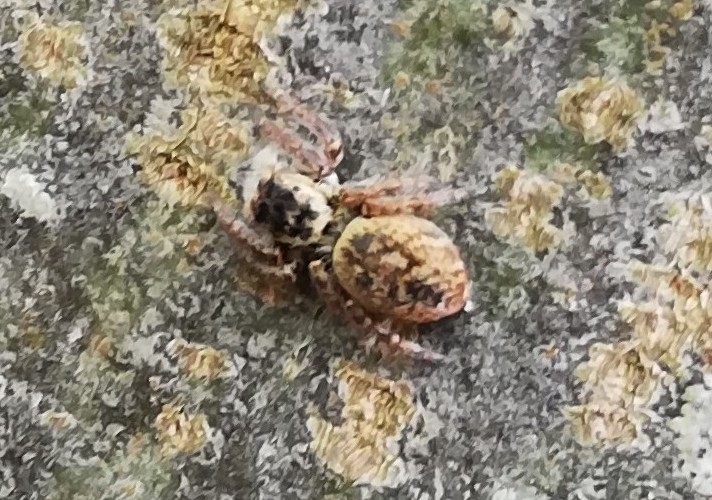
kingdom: Animalia
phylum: Arthropoda
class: Arachnida
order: Araneae
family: Salticidae
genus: Carrhotus
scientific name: Carrhotus xanthogramma
